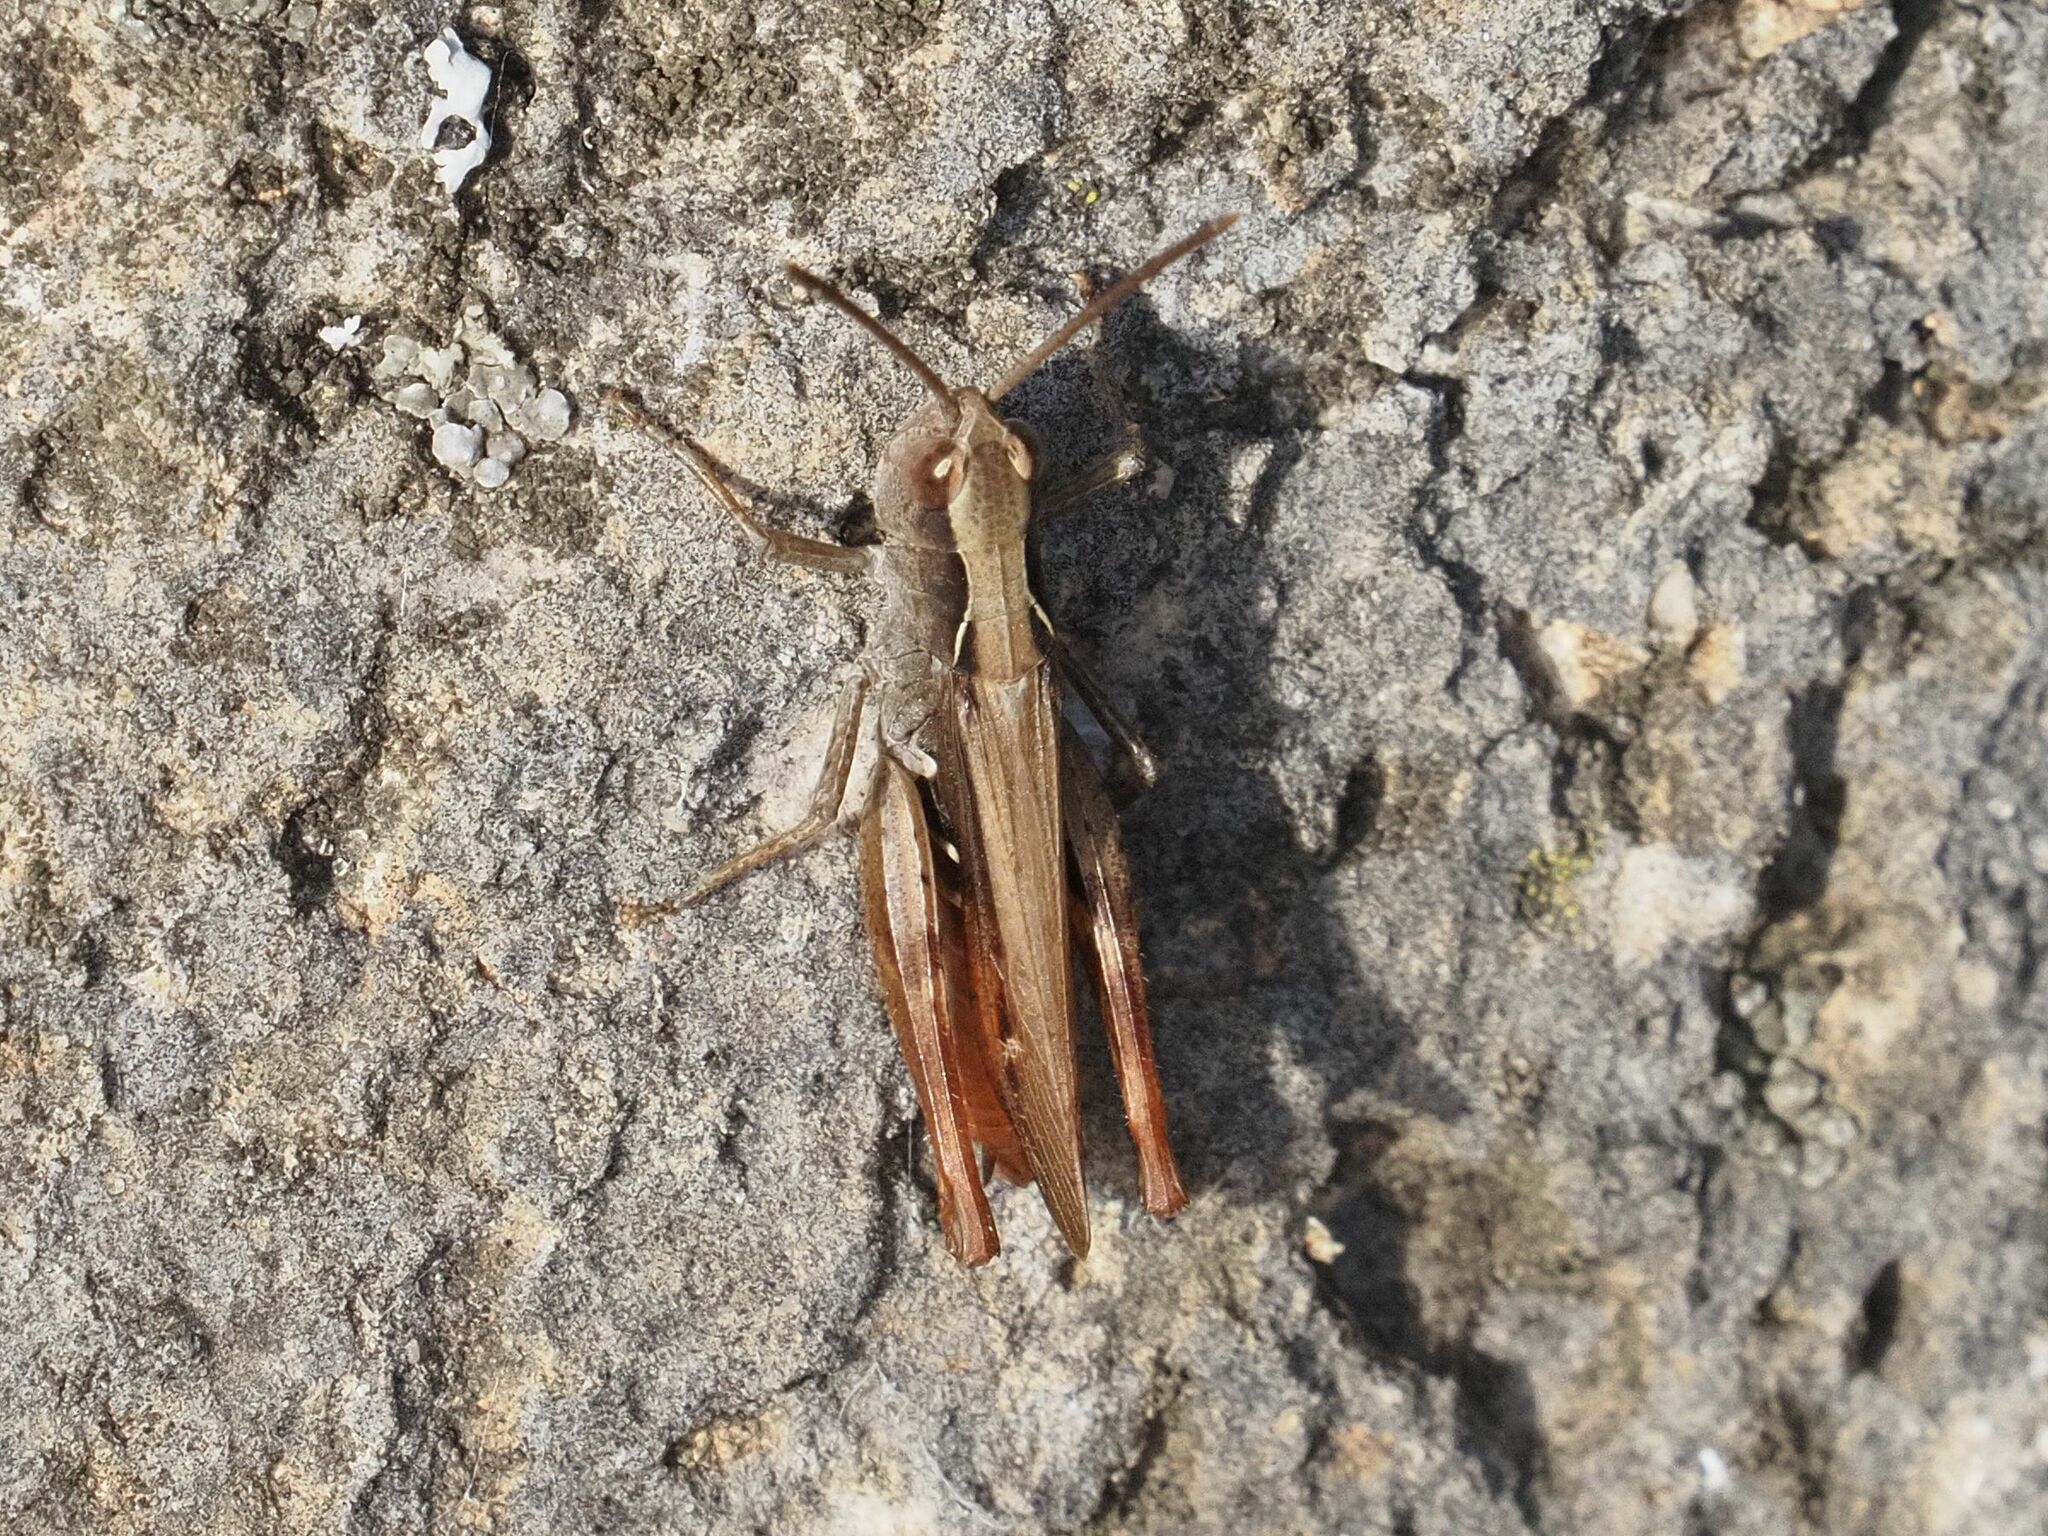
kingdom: Animalia
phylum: Arthropoda
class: Insecta
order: Orthoptera
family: Acrididae
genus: Chorthippus
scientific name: Chorthippus vagans
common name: Heath grasshopper
